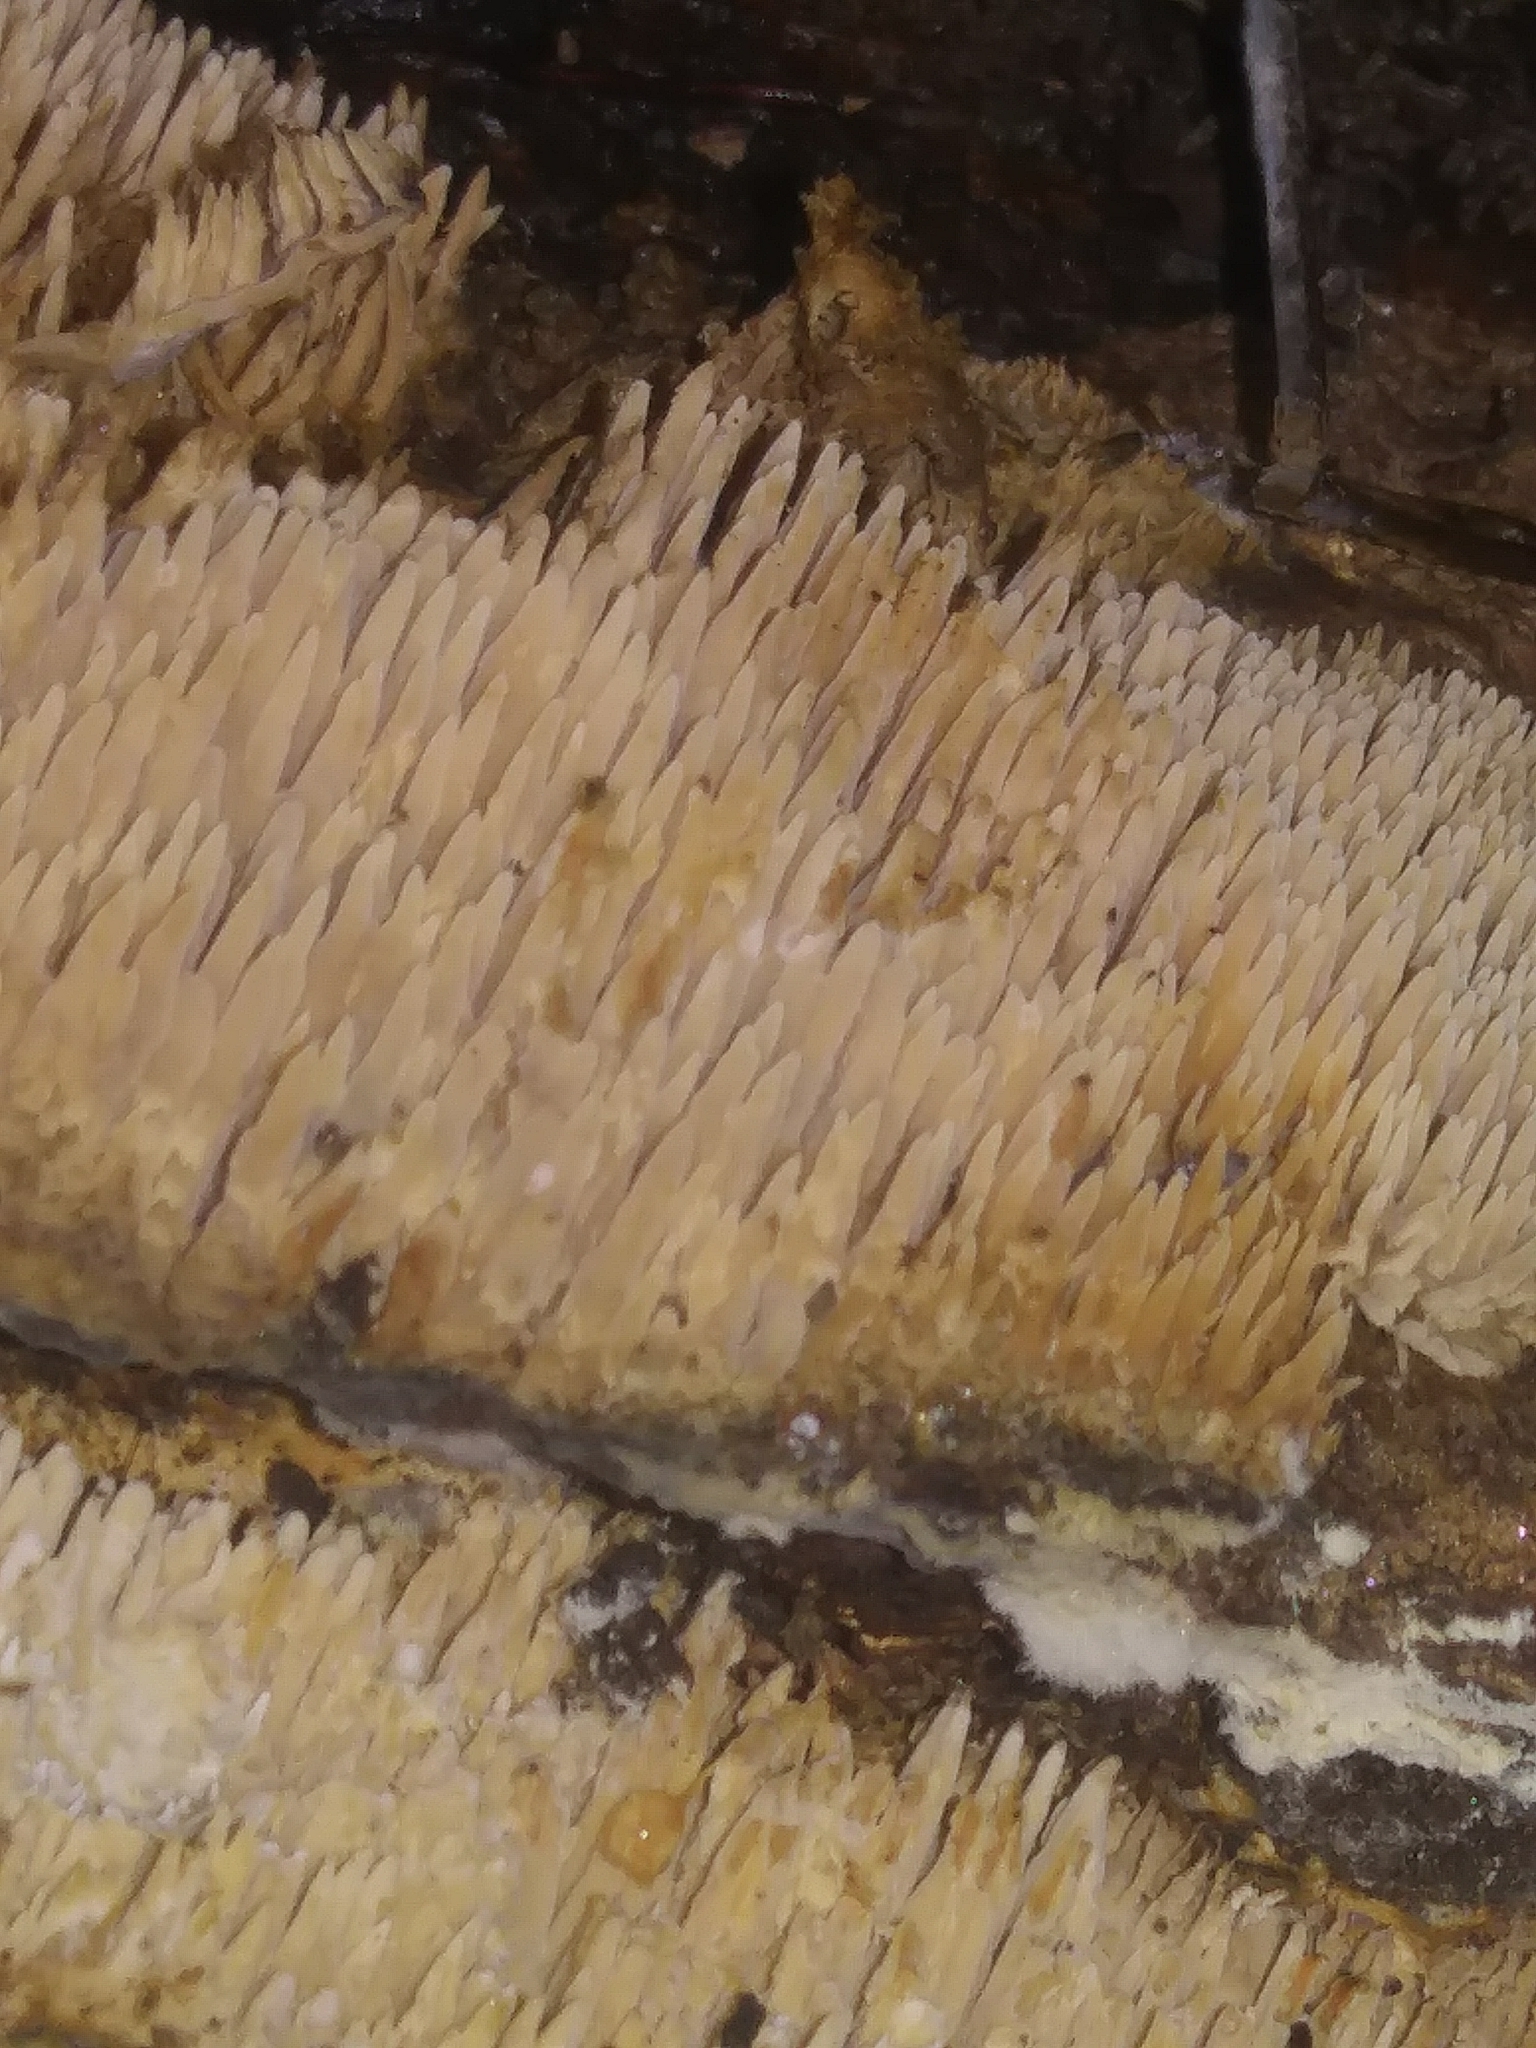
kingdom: Fungi
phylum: Basidiomycota
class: Agaricomycetes
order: Agaricales
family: Radulomycetaceae
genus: Radulomyces
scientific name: Radulomyces copelandii
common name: Asian beauty
